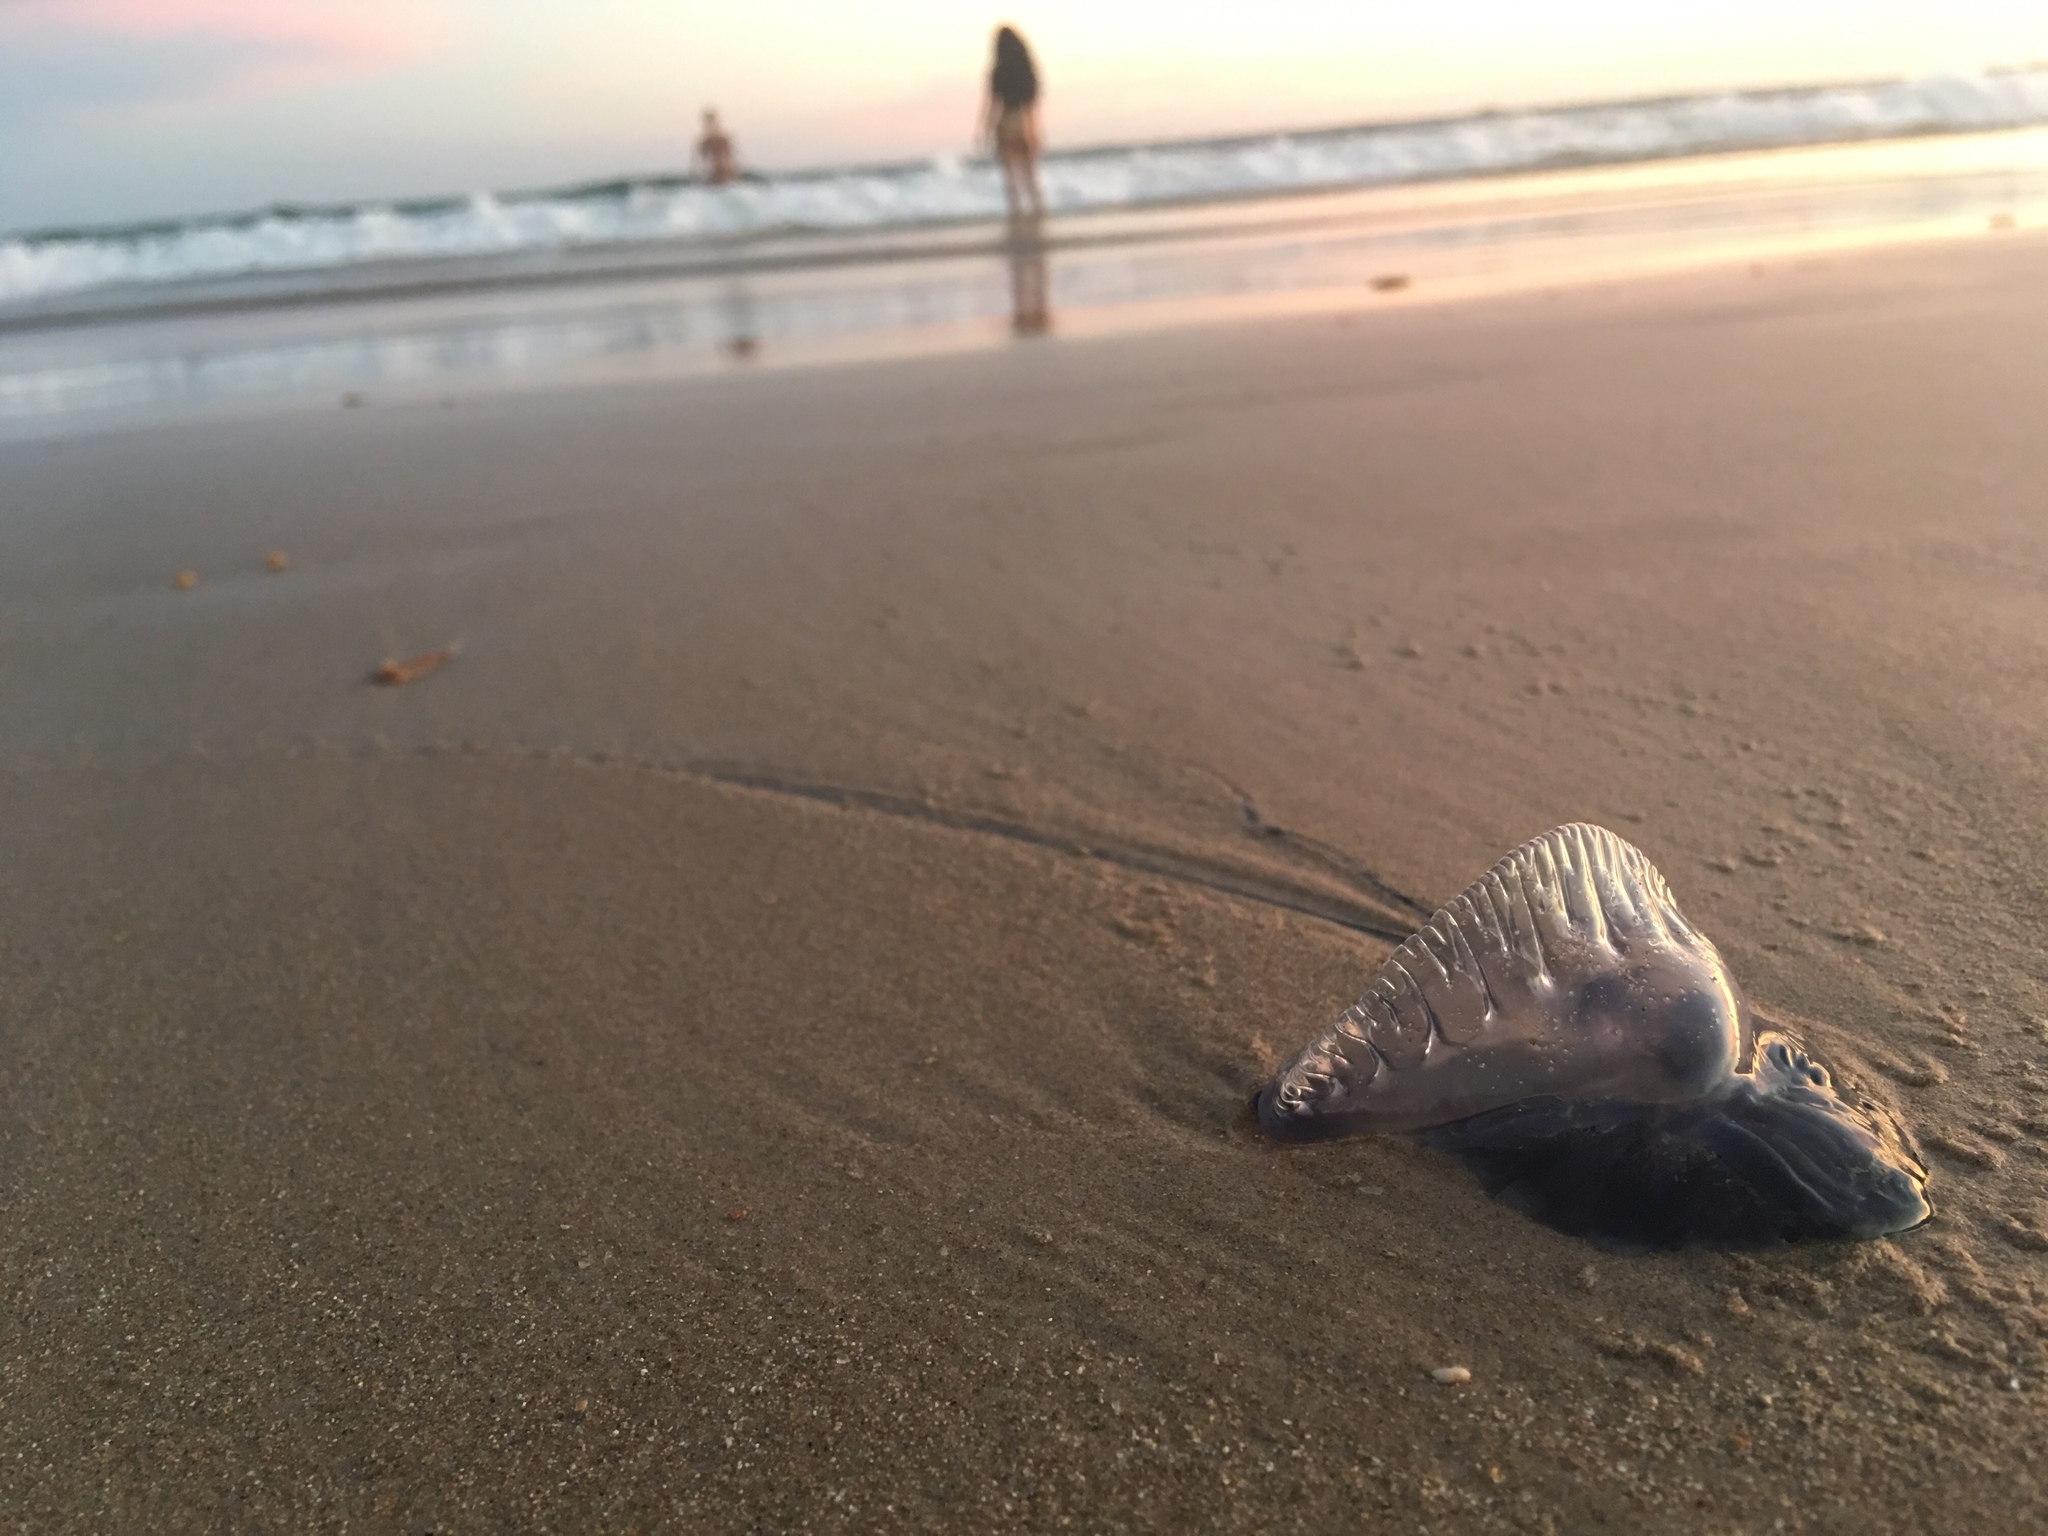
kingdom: Animalia
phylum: Cnidaria
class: Hydrozoa
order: Siphonophorae
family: Physaliidae
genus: Physalia
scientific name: Physalia physalis
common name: Portuguese man-of-war
